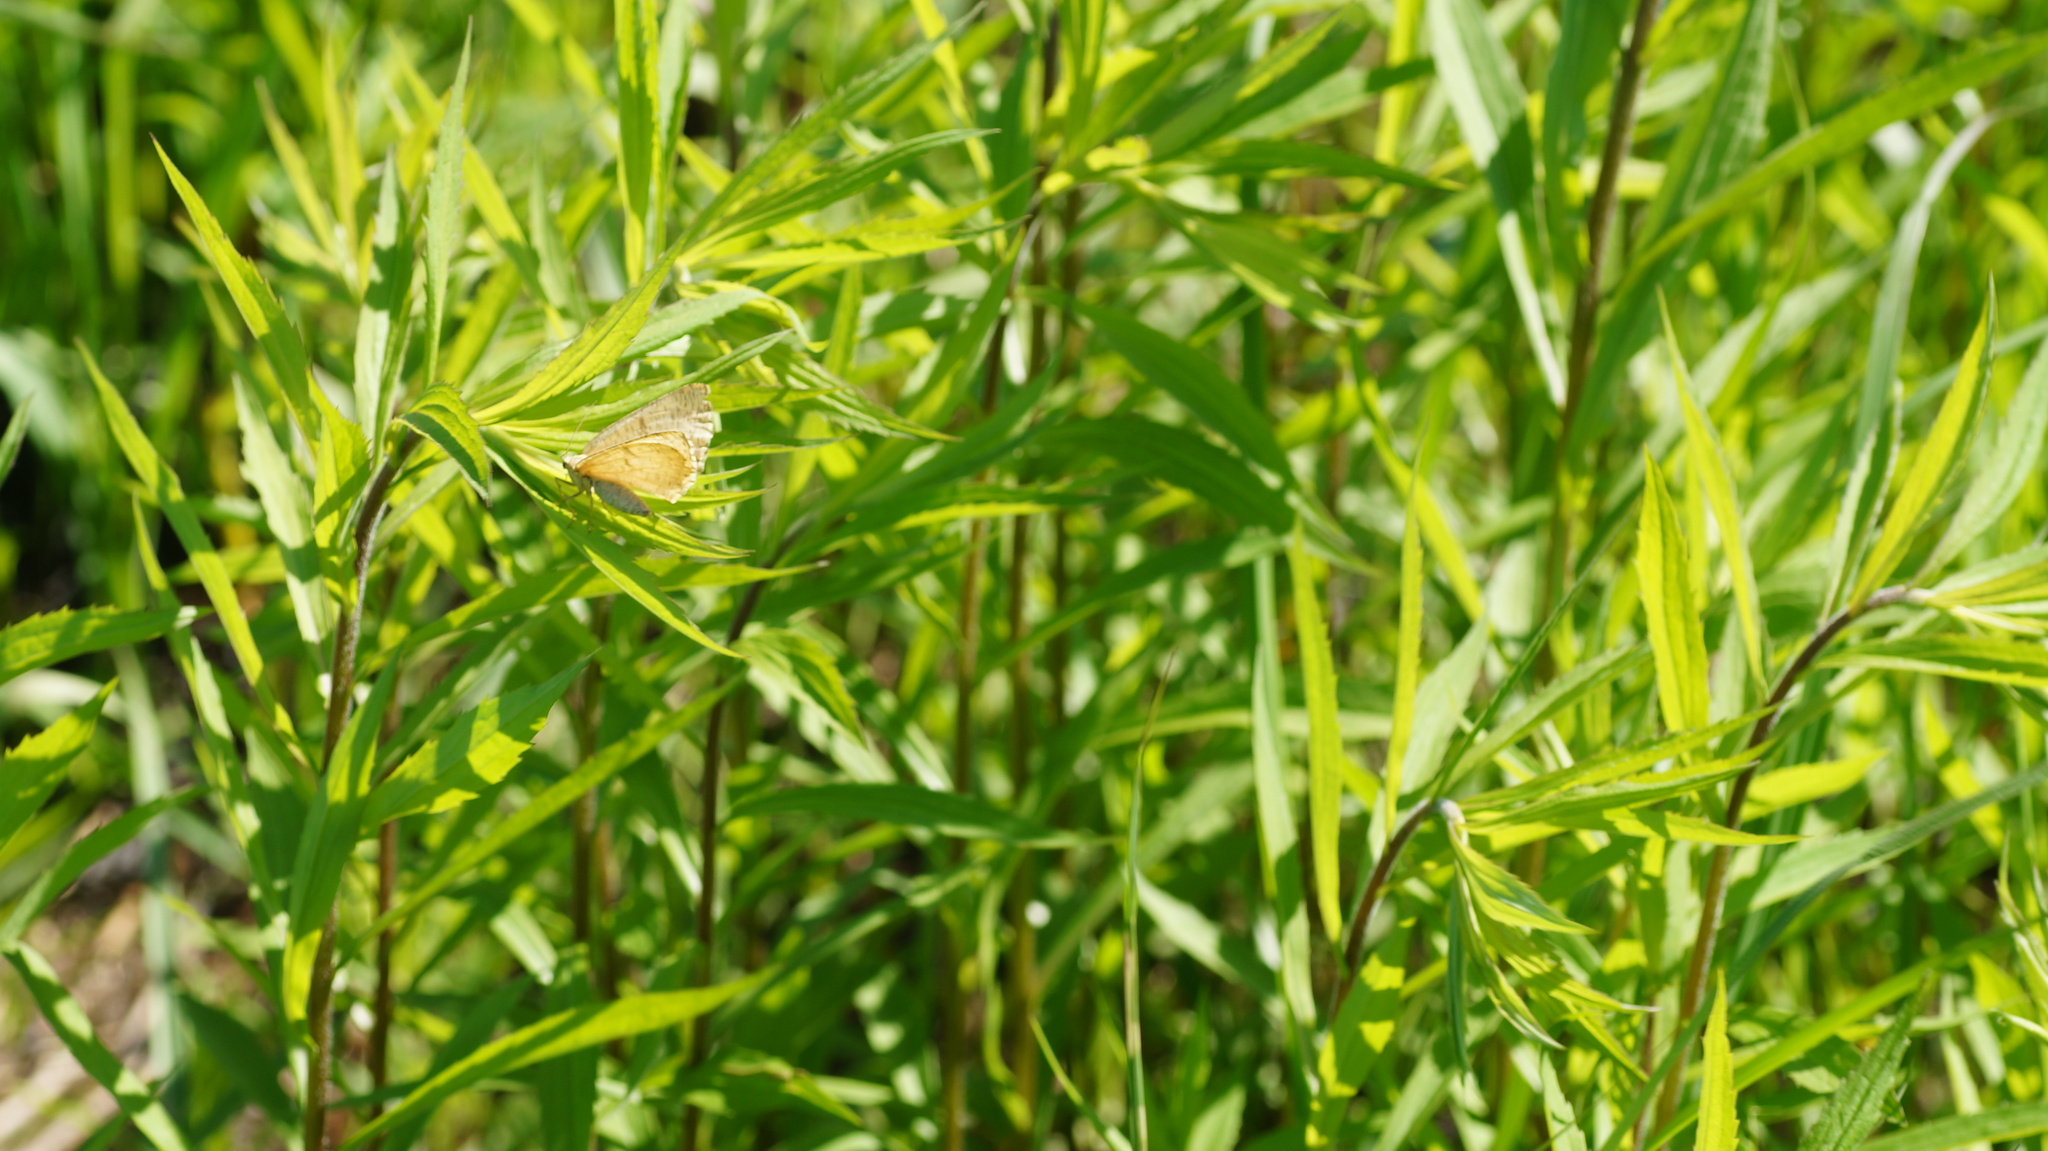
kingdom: Animalia
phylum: Arthropoda
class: Insecta
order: Lepidoptera
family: Geometridae
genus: Angerona
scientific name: Angerona prunaria
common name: Orange moth
